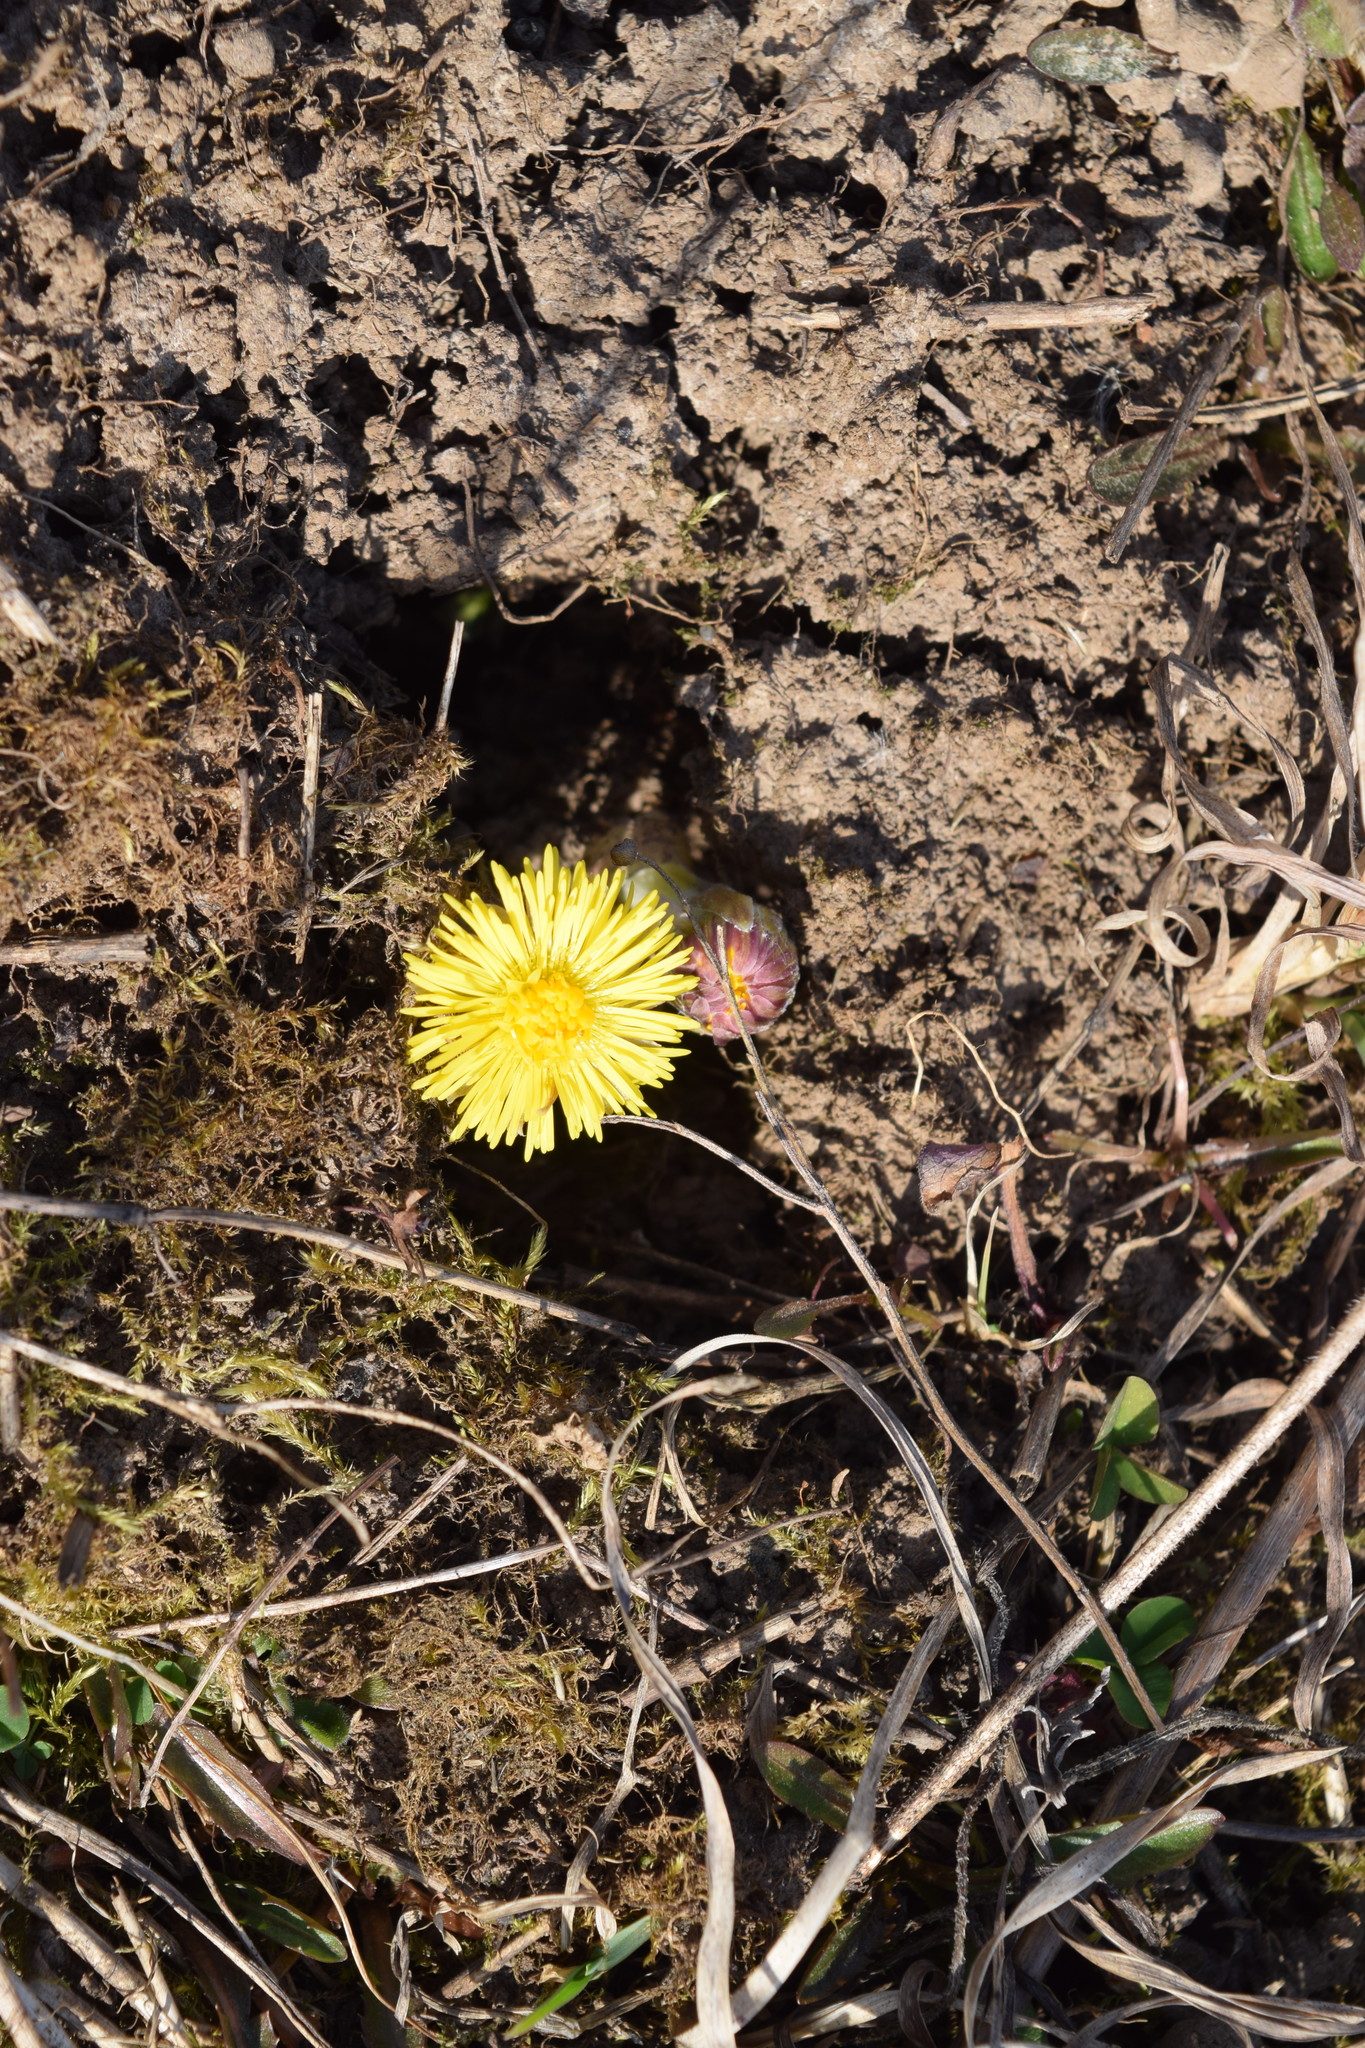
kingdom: Plantae
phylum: Tracheophyta
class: Magnoliopsida
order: Asterales
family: Asteraceae
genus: Tussilago
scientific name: Tussilago farfara
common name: Coltsfoot
